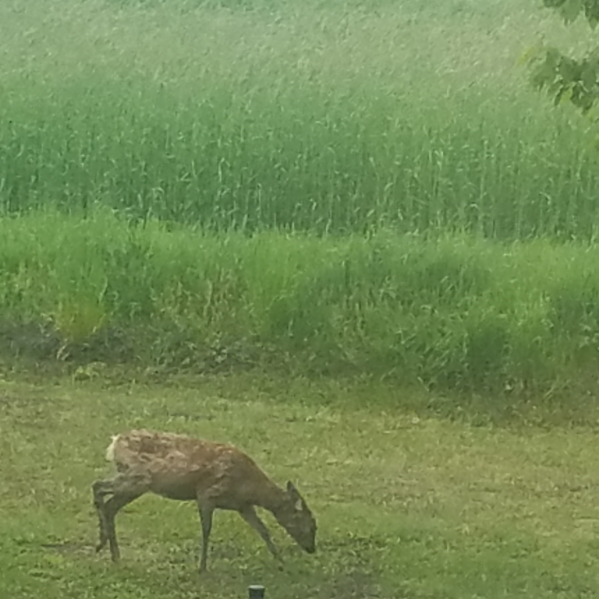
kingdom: Animalia
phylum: Chordata
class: Mammalia
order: Artiodactyla
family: Cervidae
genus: Capreolus
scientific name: Capreolus capreolus
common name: Western roe deer
